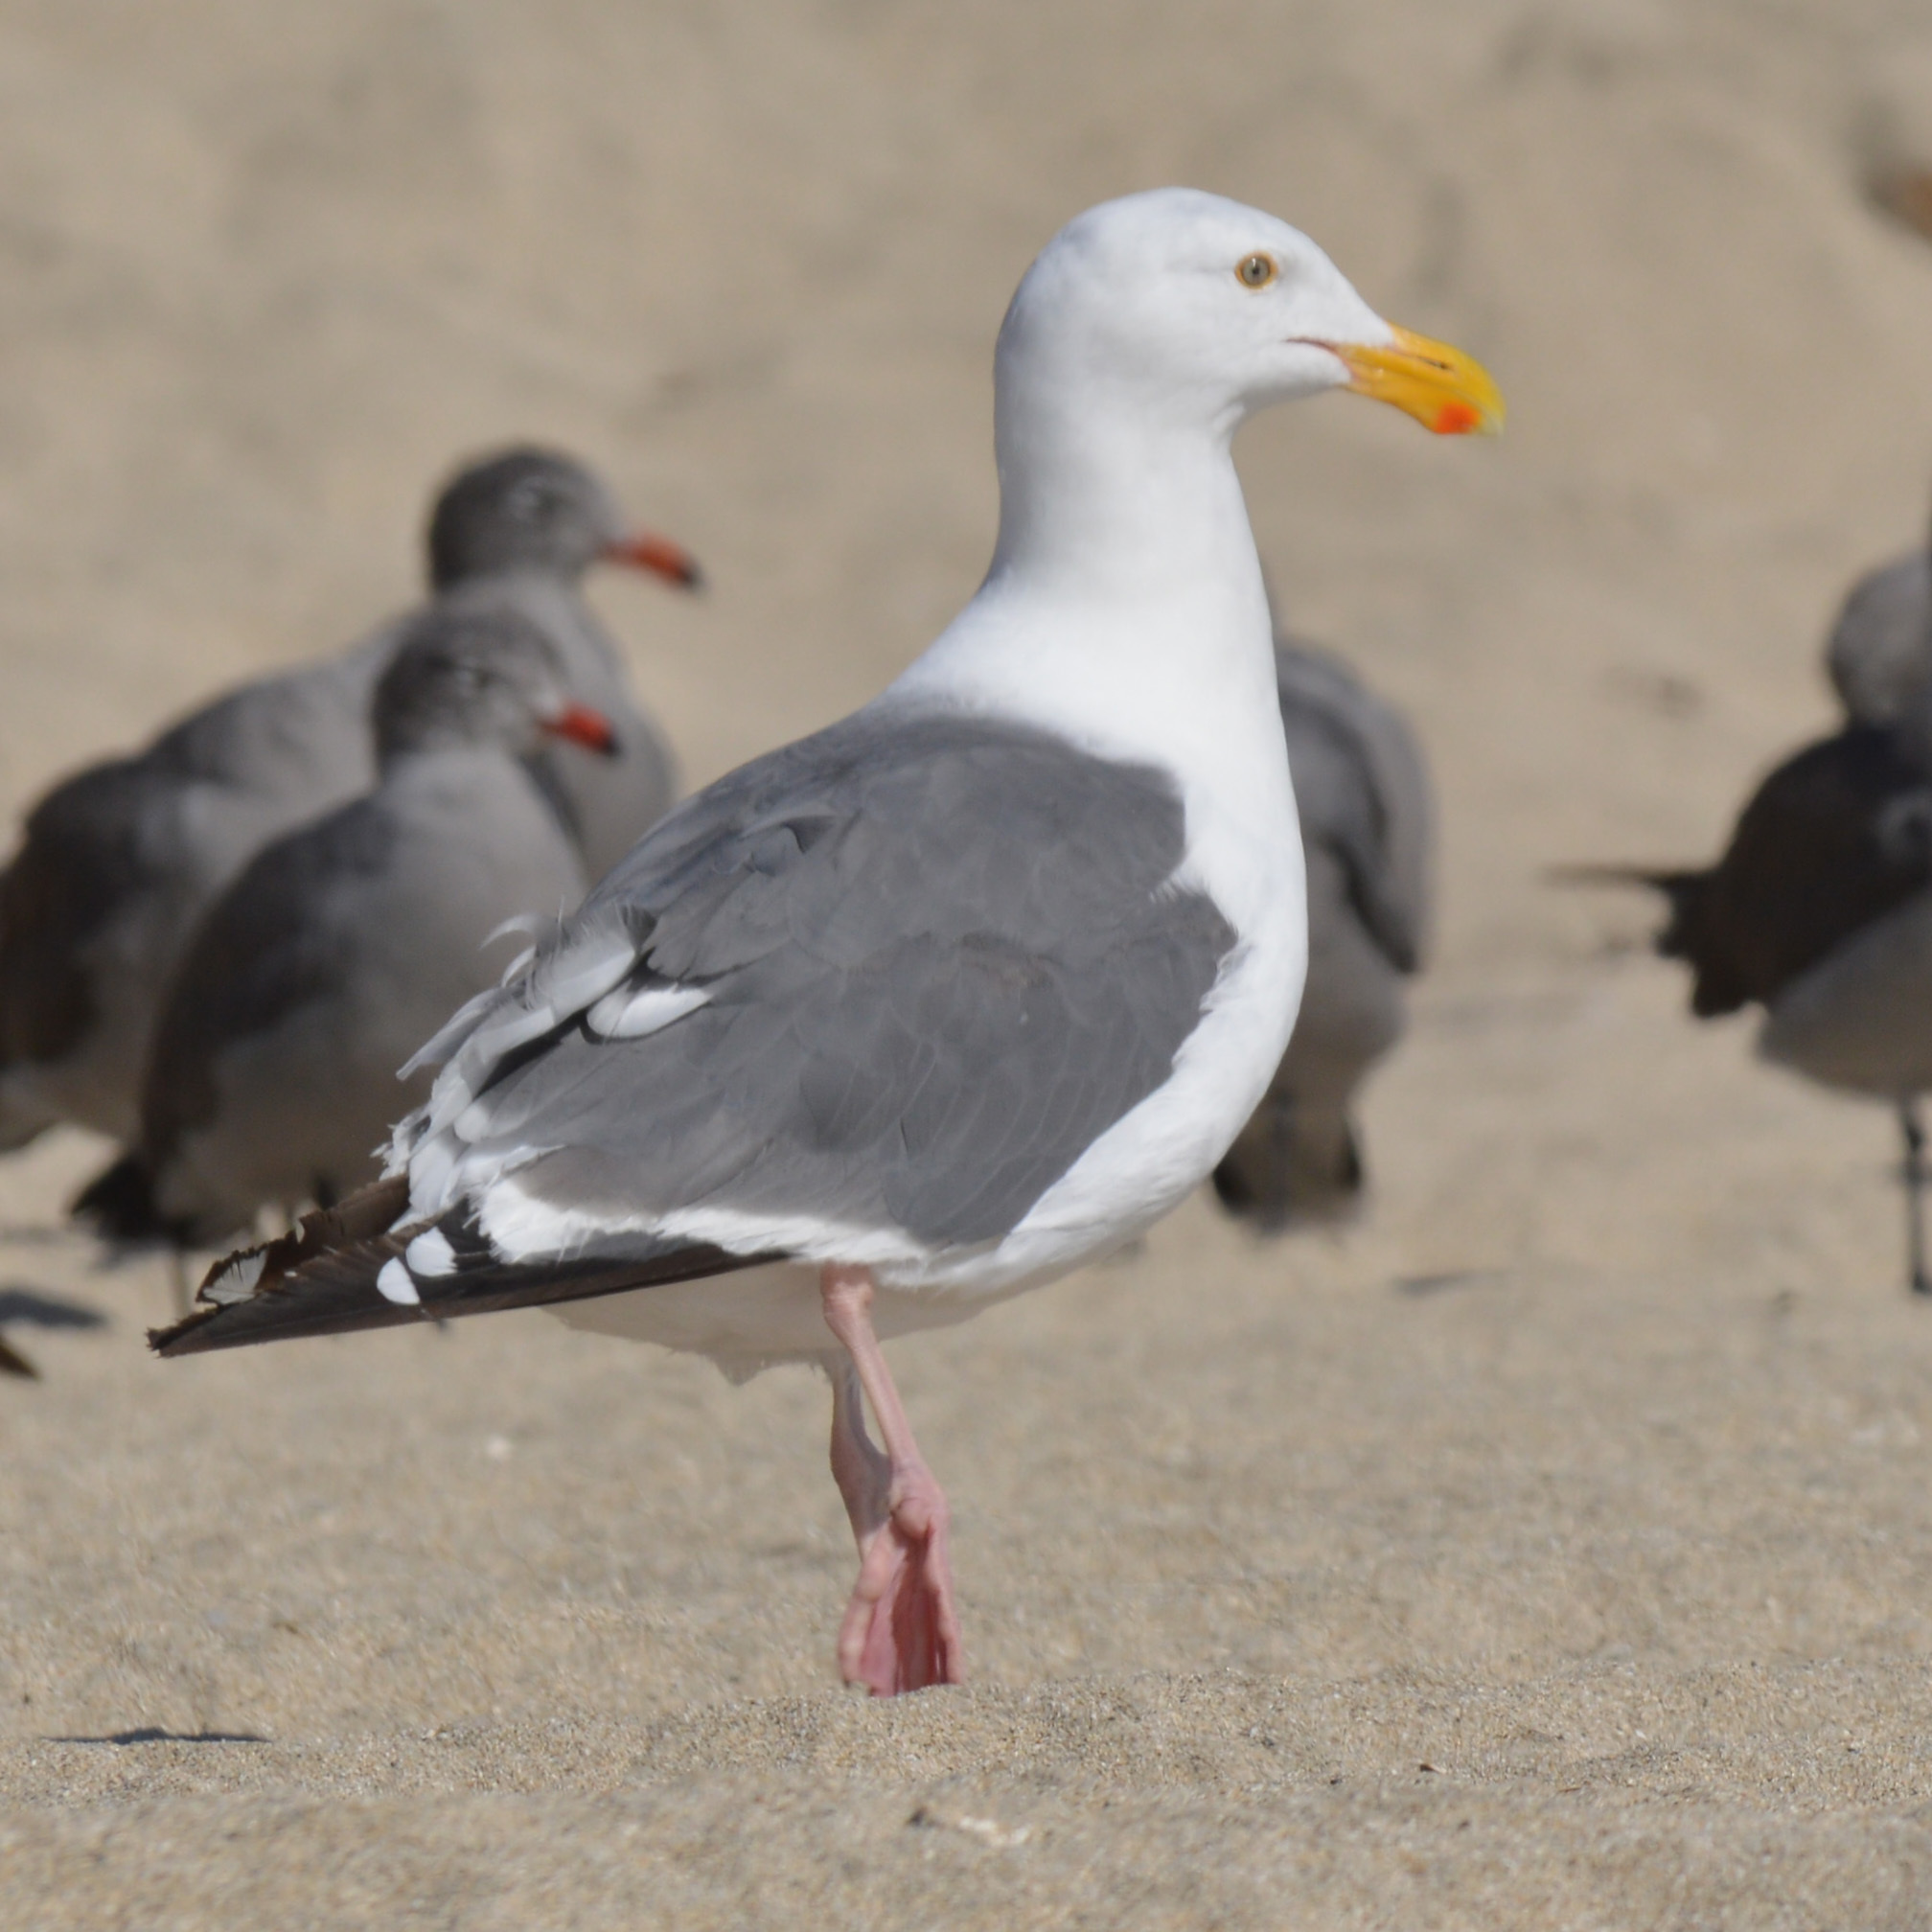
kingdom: Animalia
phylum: Chordata
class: Aves
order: Charadriiformes
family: Laridae
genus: Larus
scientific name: Larus occidentalis
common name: Western gull
